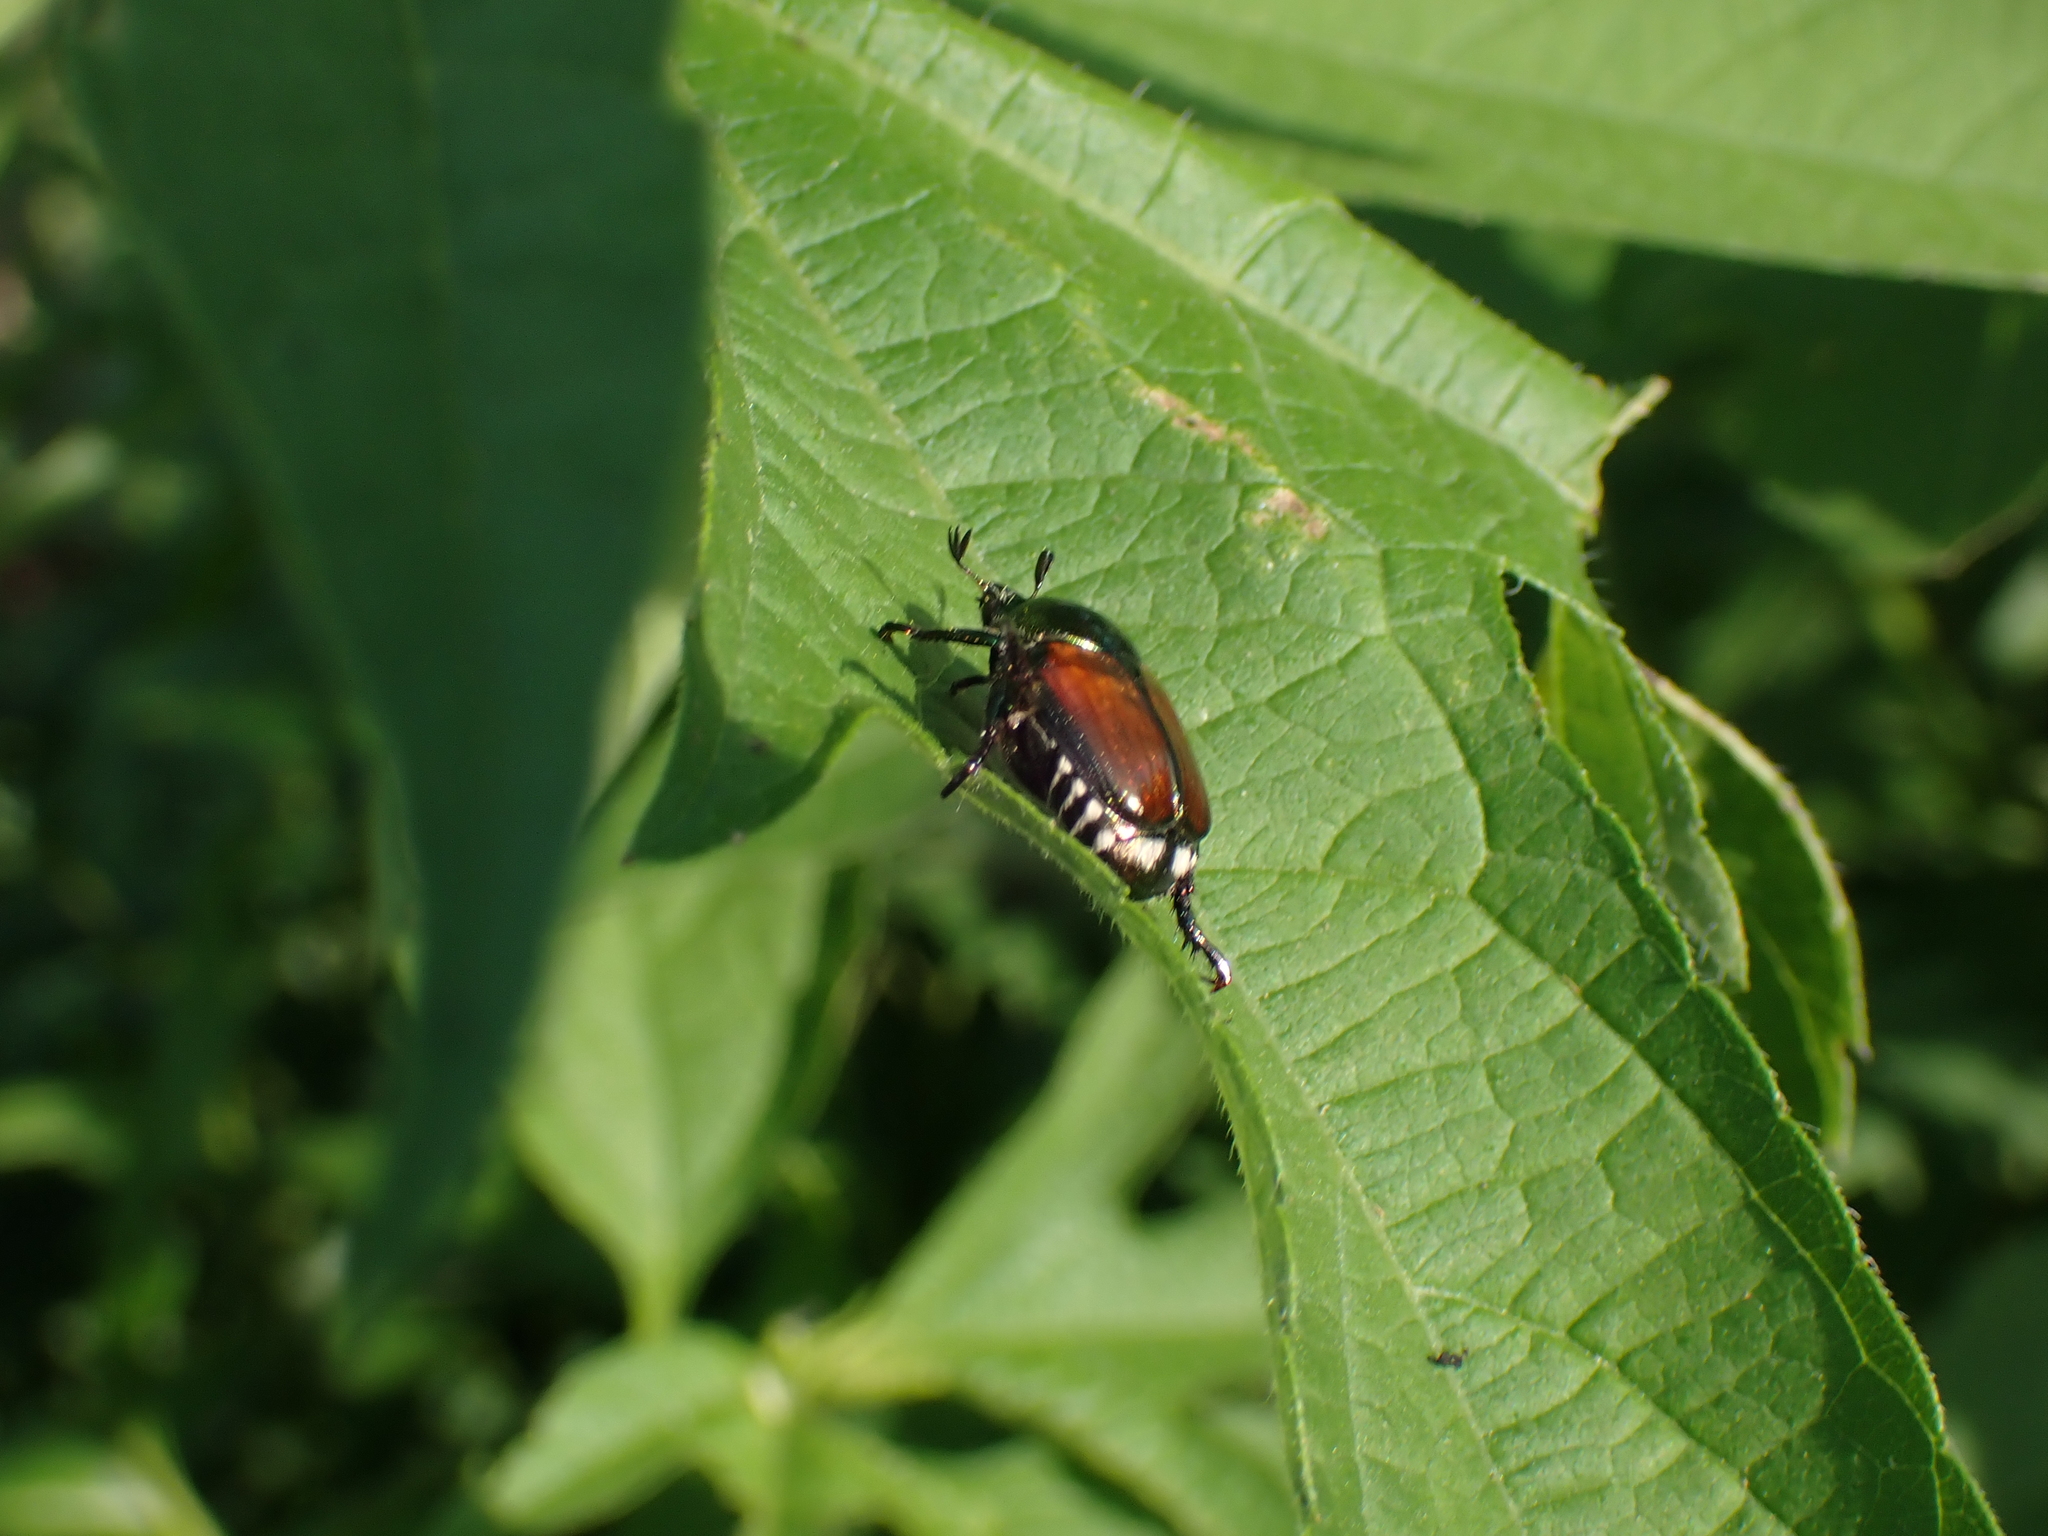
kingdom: Animalia
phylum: Arthropoda
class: Insecta
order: Coleoptera
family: Scarabaeidae
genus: Popillia
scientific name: Popillia japonica
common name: Japanese beetle
